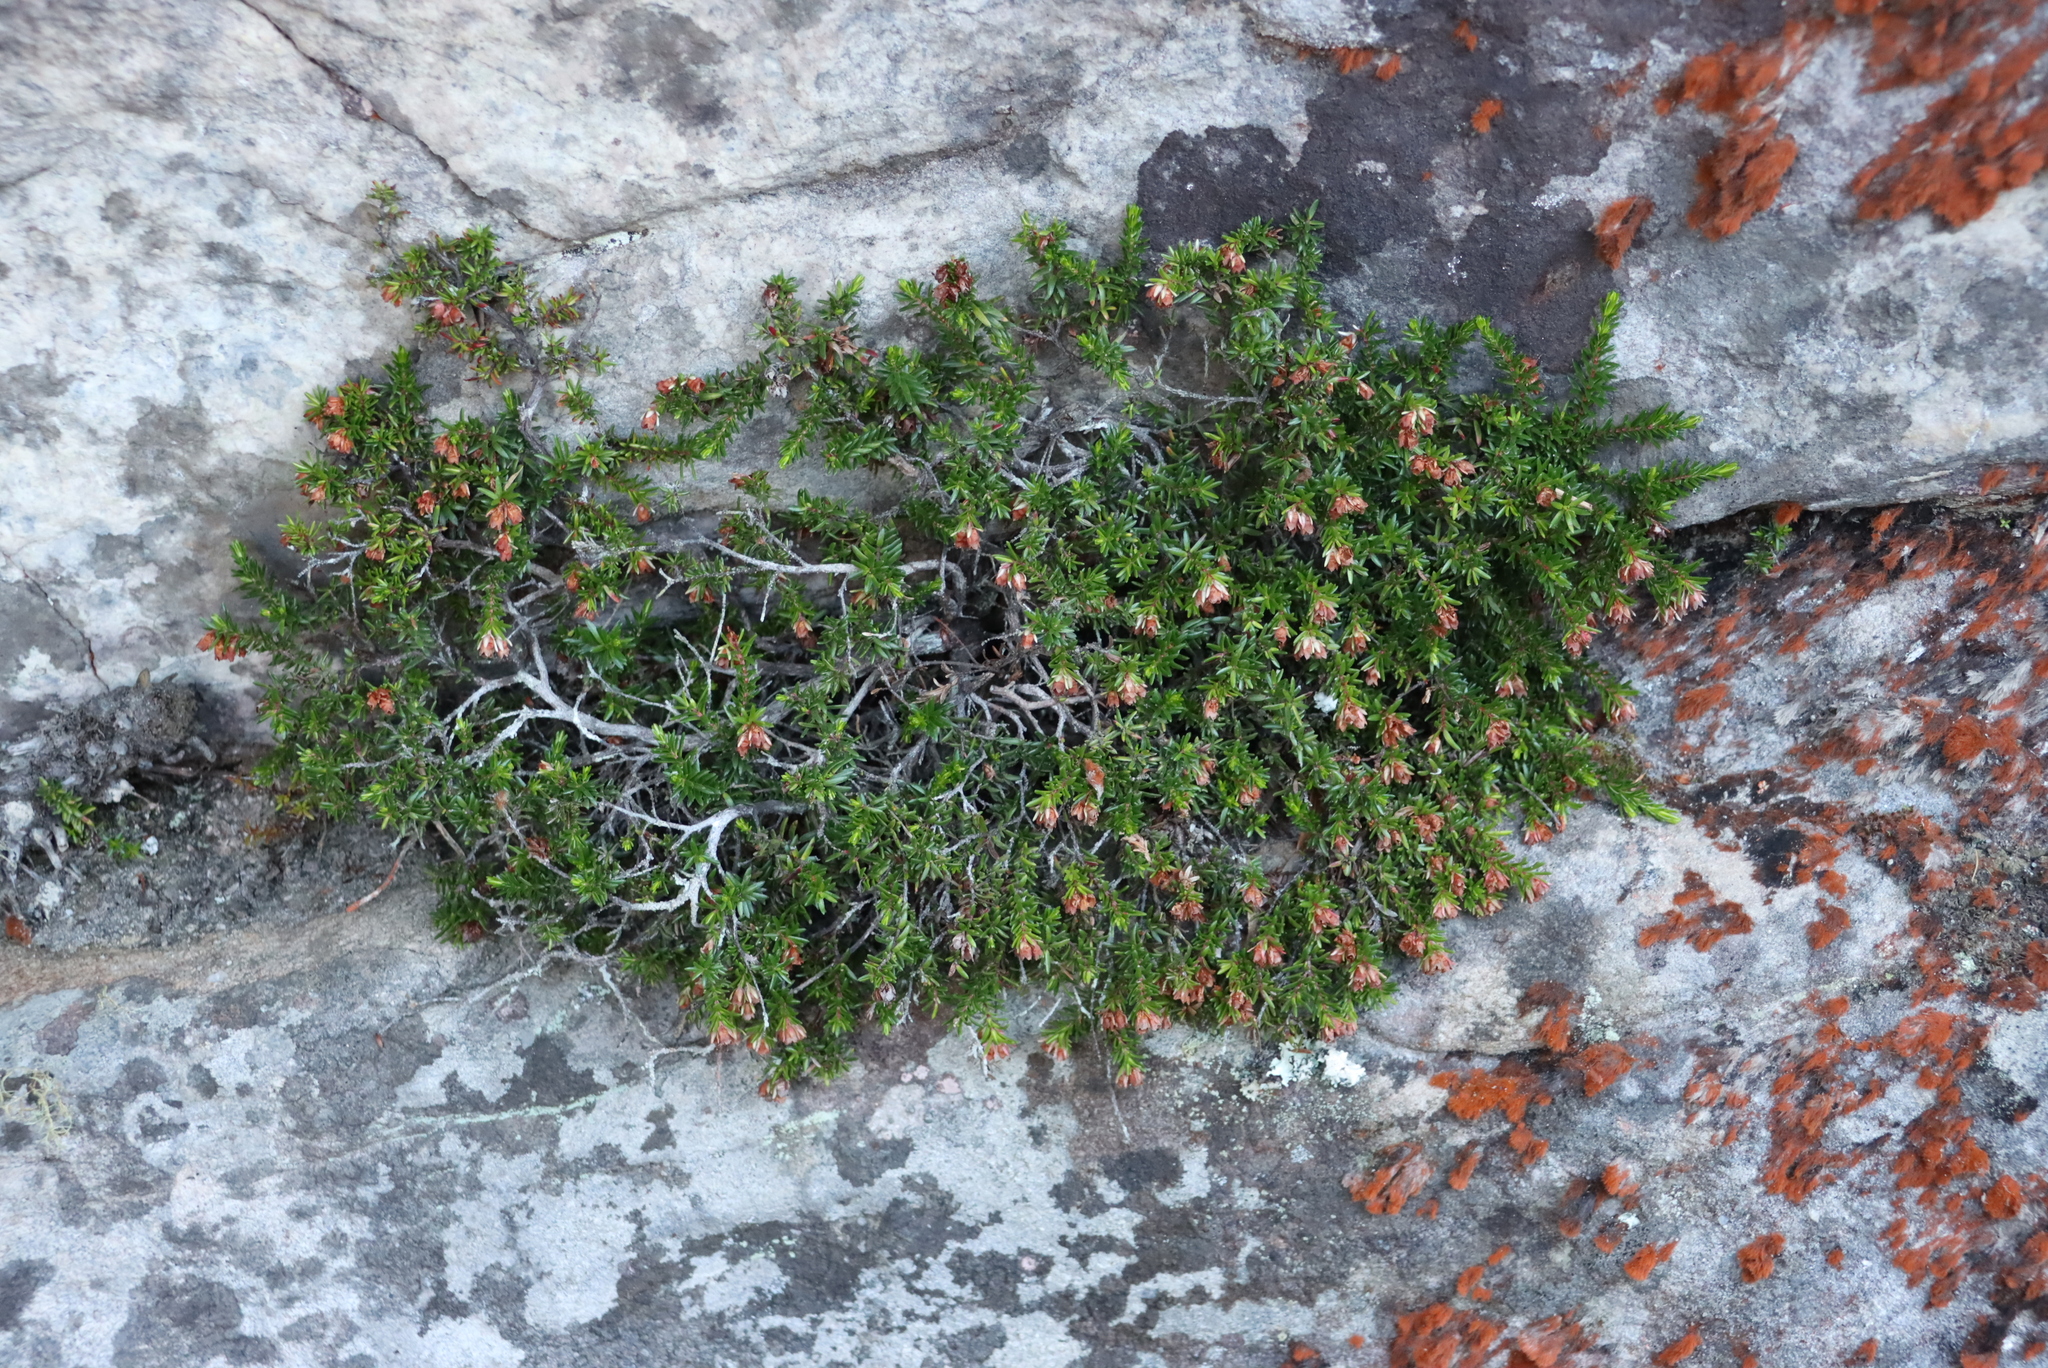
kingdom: Plantae
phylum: Tracheophyta
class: Magnoliopsida
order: Ericales
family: Ericaceae
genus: Erica
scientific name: Erica depressa
